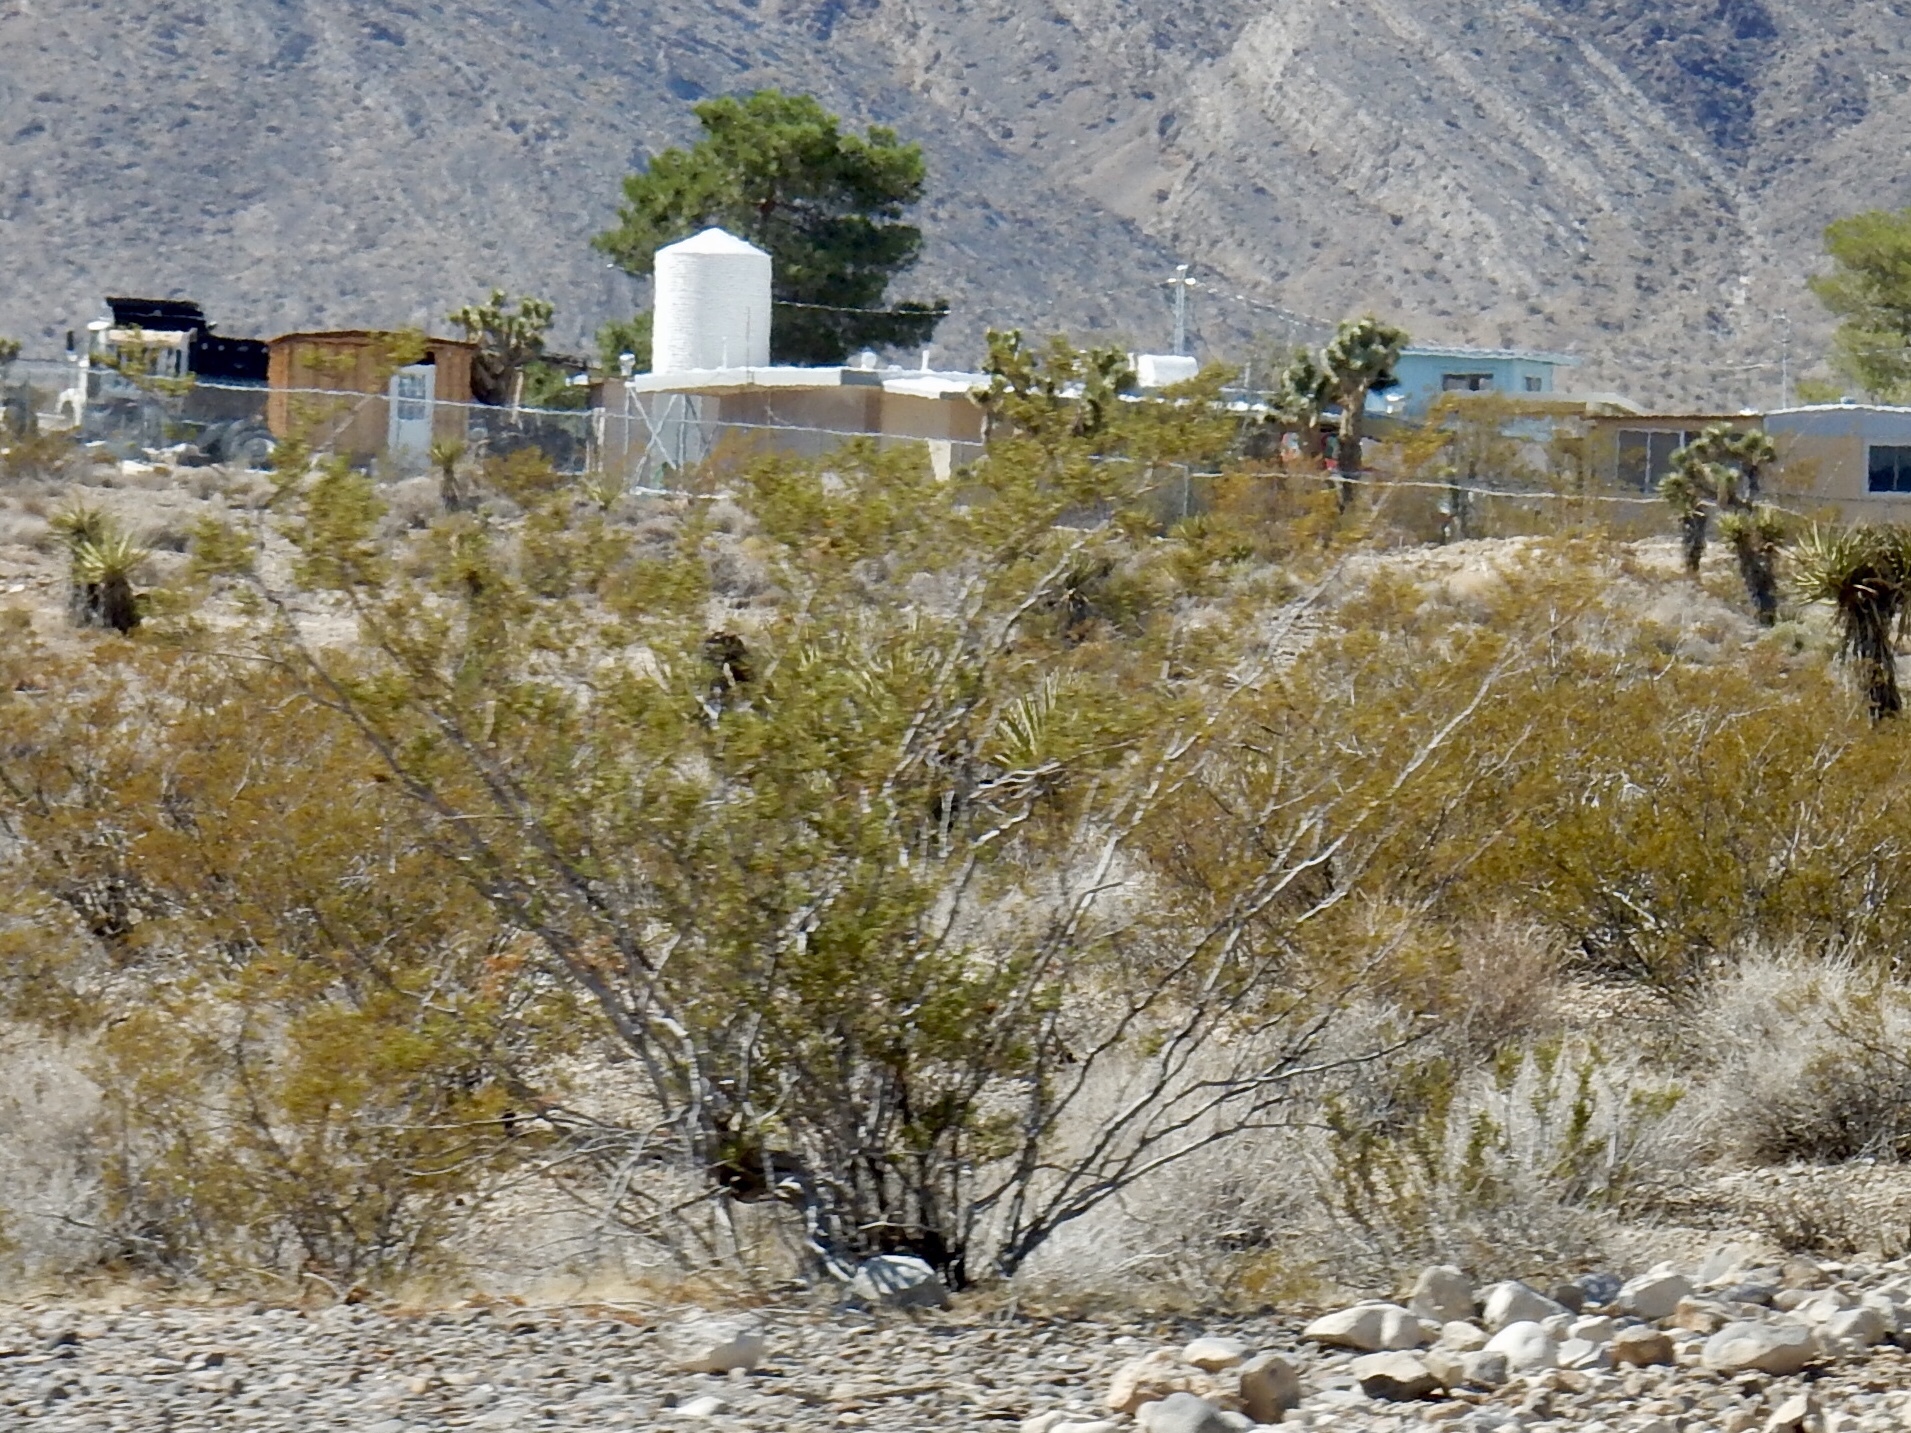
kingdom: Plantae
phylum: Tracheophyta
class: Magnoliopsida
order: Zygophyllales
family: Zygophyllaceae
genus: Larrea
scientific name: Larrea tridentata
